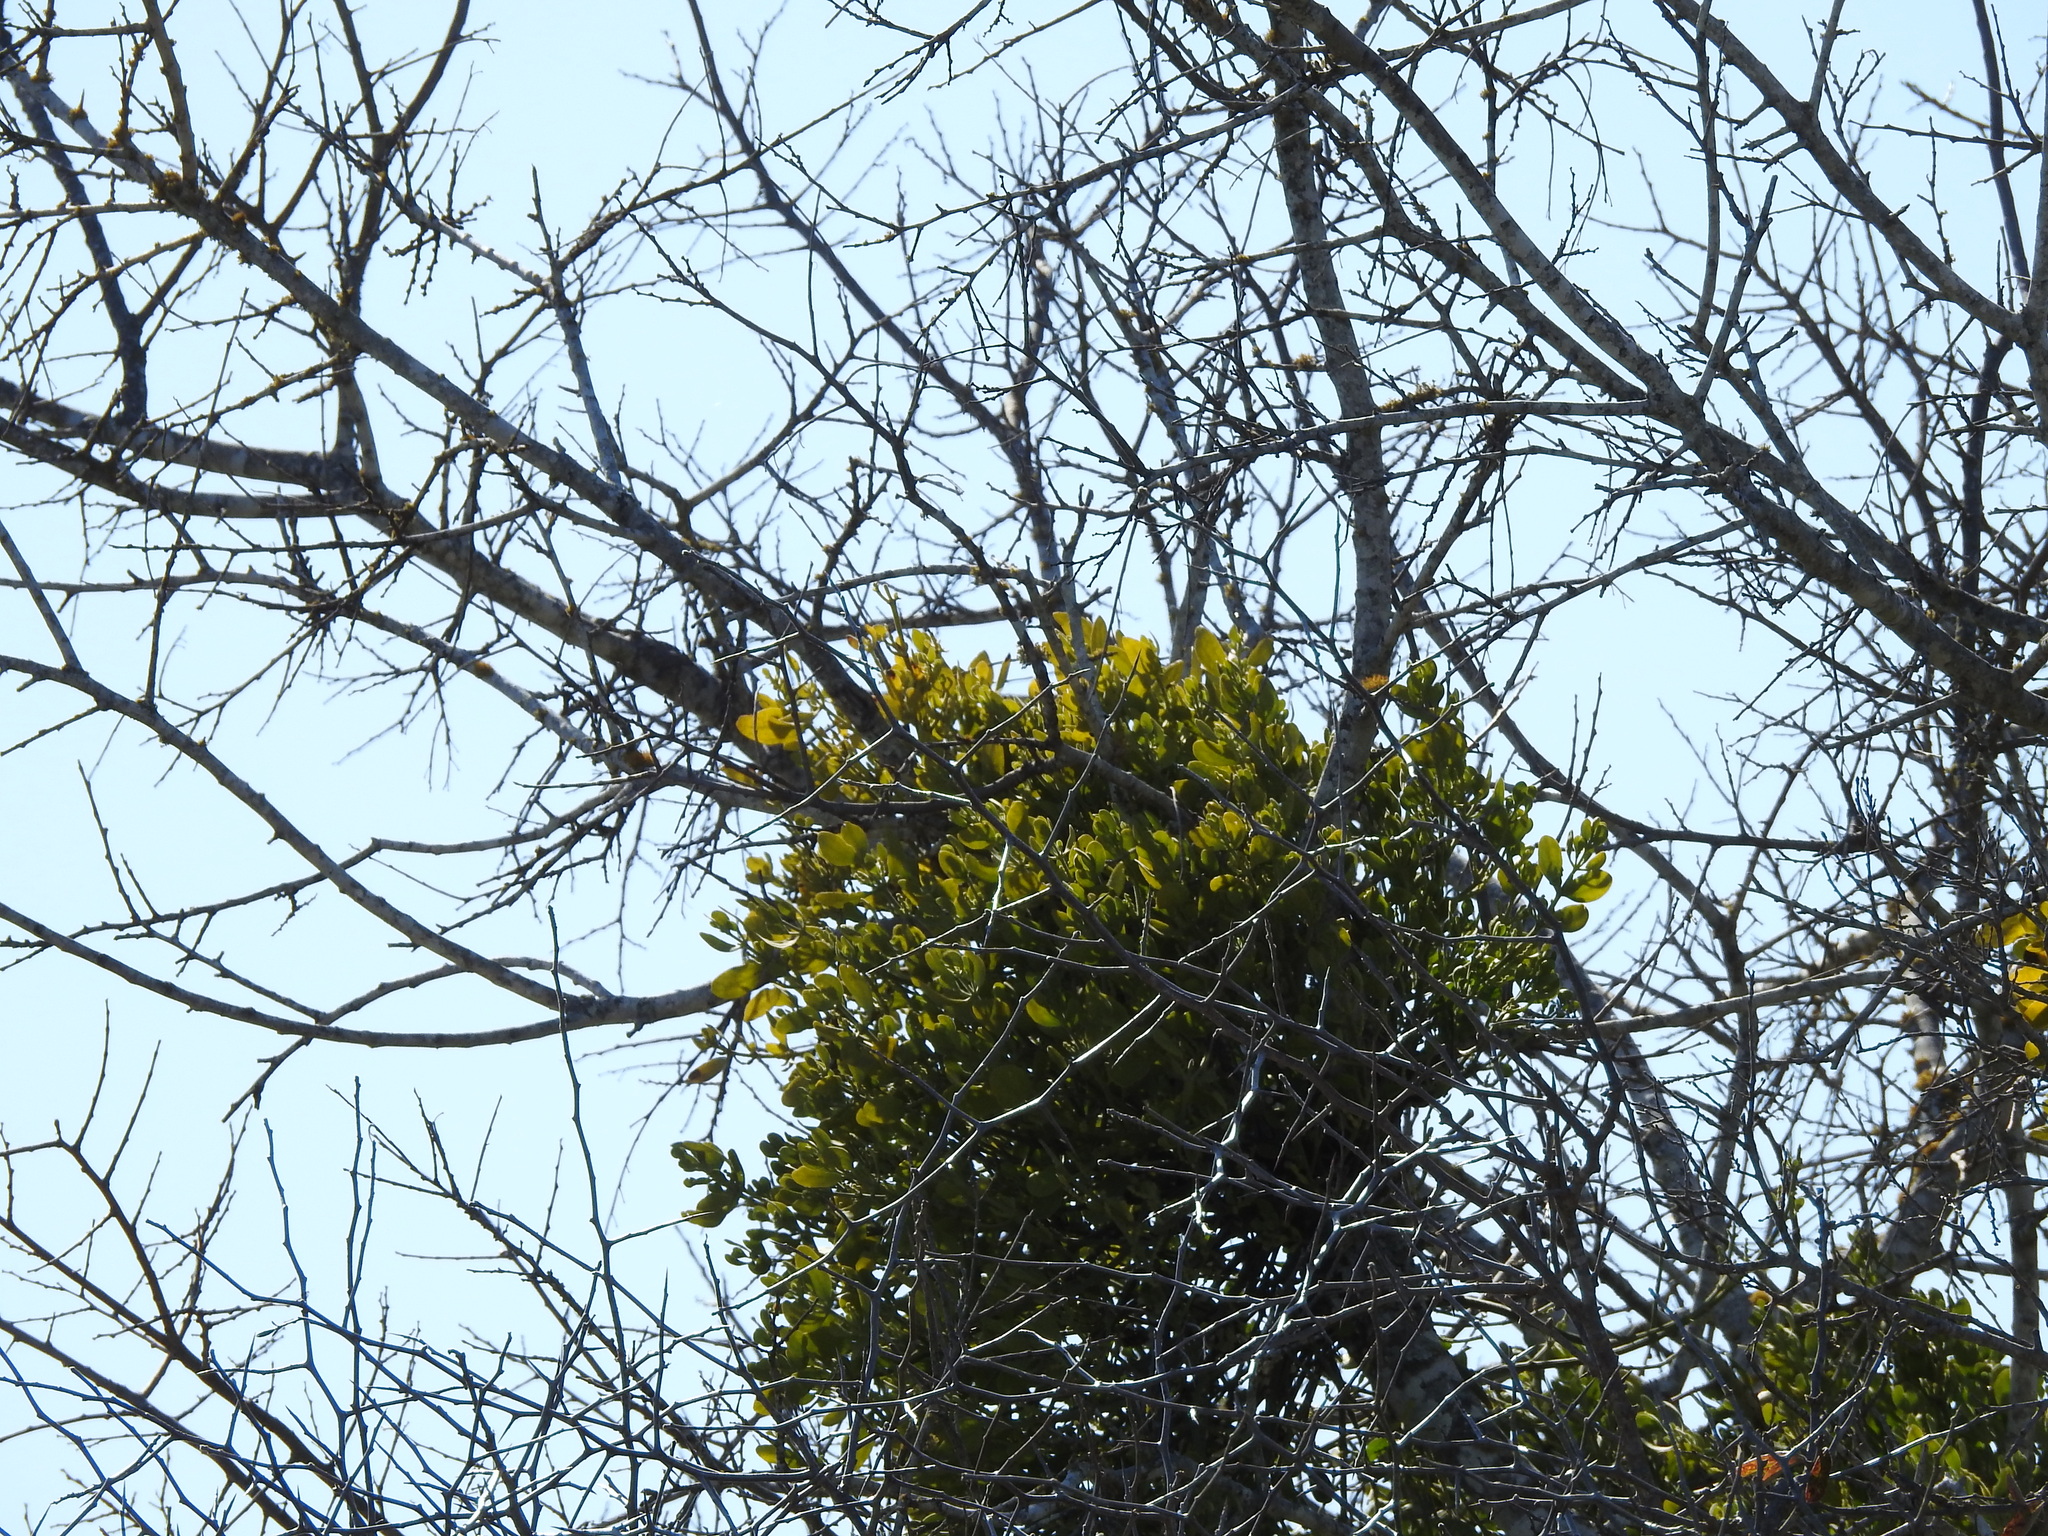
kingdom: Plantae
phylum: Tracheophyta
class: Magnoliopsida
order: Santalales
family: Viscaceae
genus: Phoradendron
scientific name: Phoradendron leucarpum
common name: Pacific mistletoe
